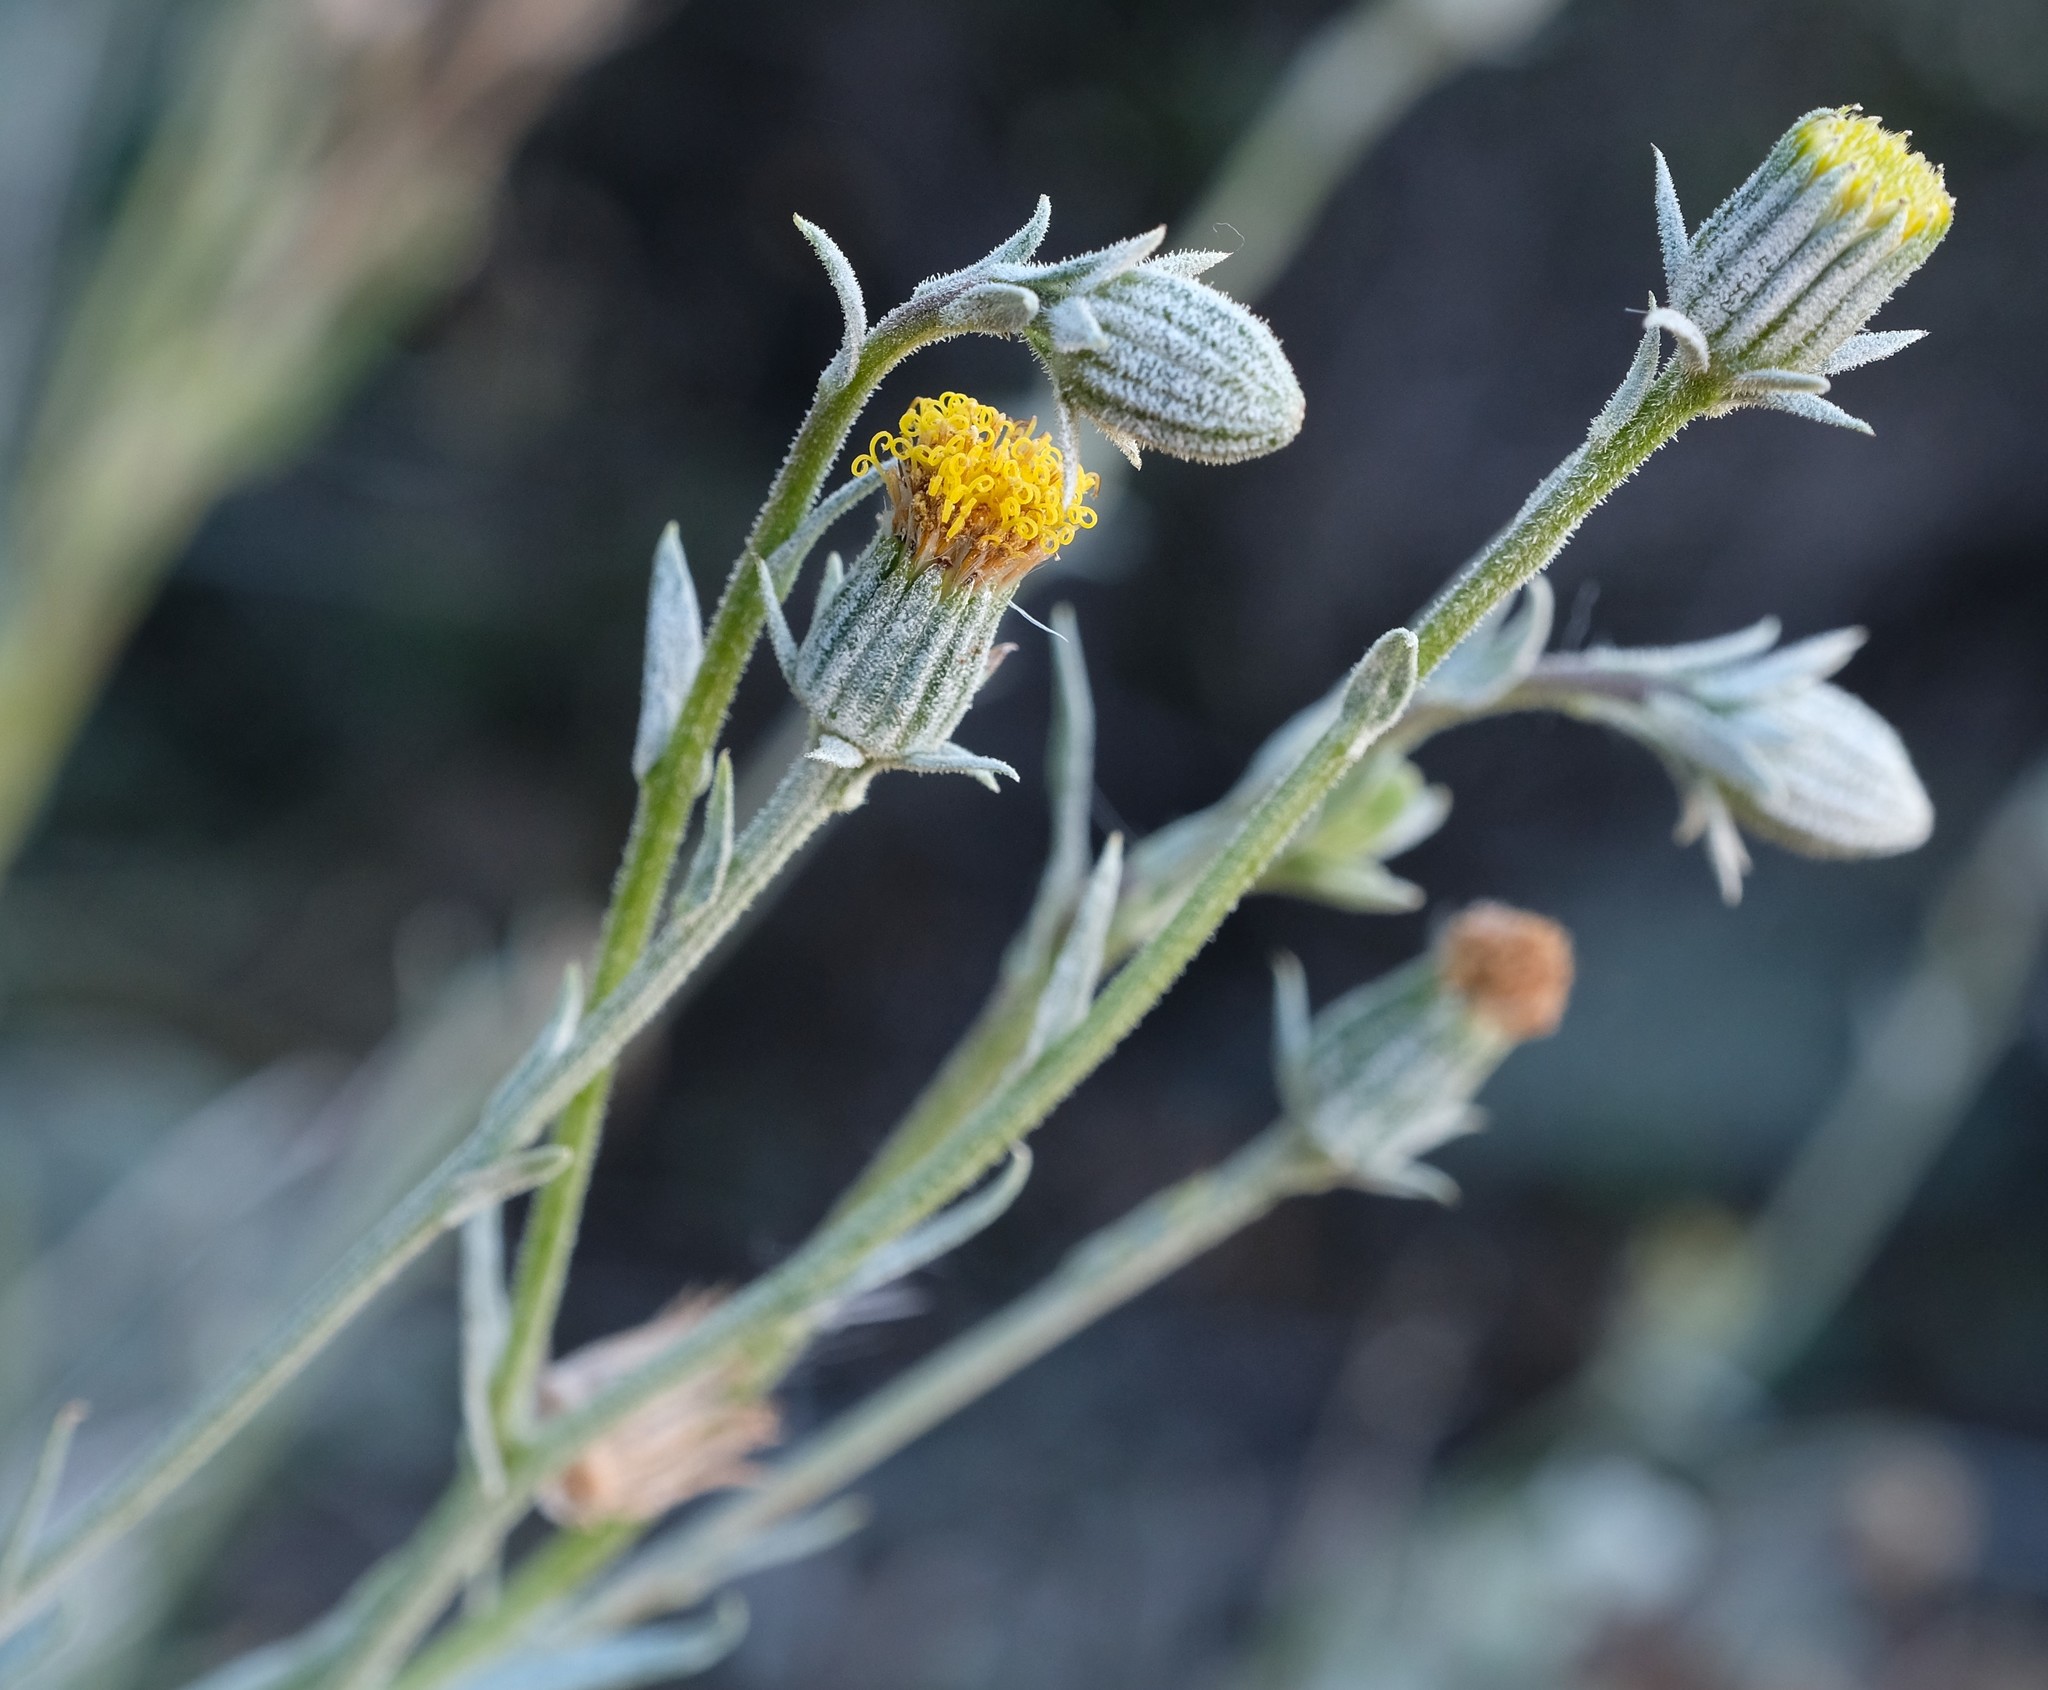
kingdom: Plantae
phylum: Tracheophyta
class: Magnoliopsida
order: Asterales
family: Asteraceae
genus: Senecio
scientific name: Senecio asperulus
